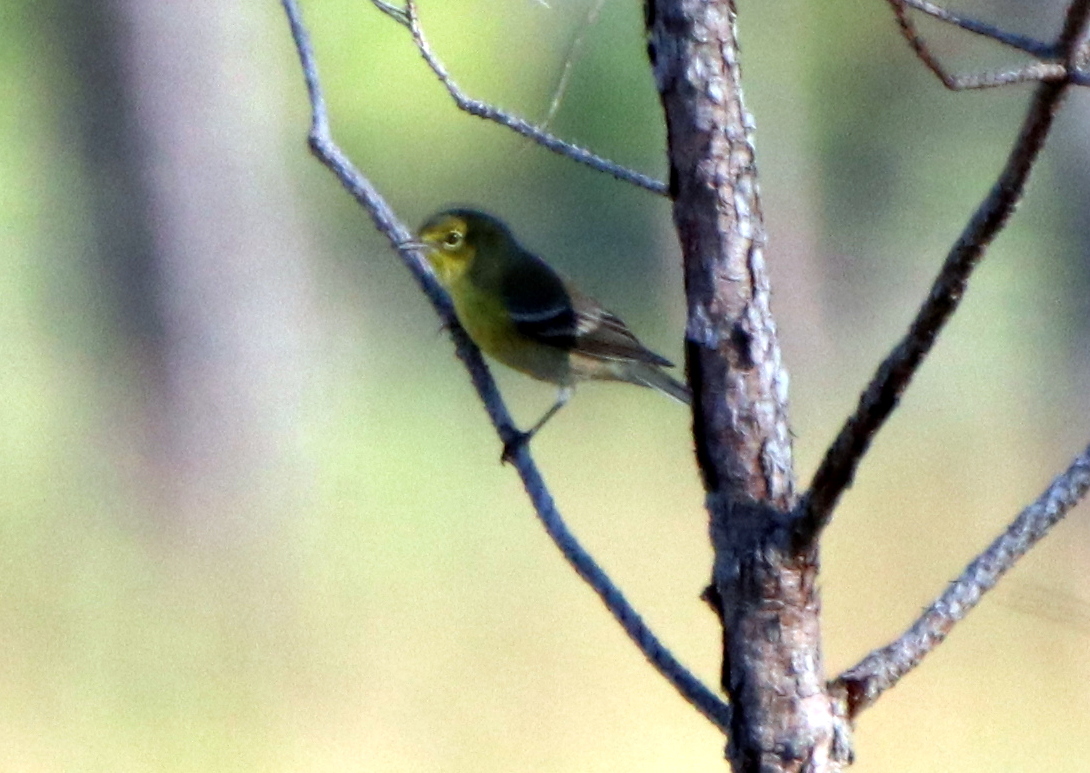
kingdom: Animalia
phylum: Chordata
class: Aves
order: Passeriformes
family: Parulidae
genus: Setophaga
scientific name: Setophaga pinus
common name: Pine warbler
